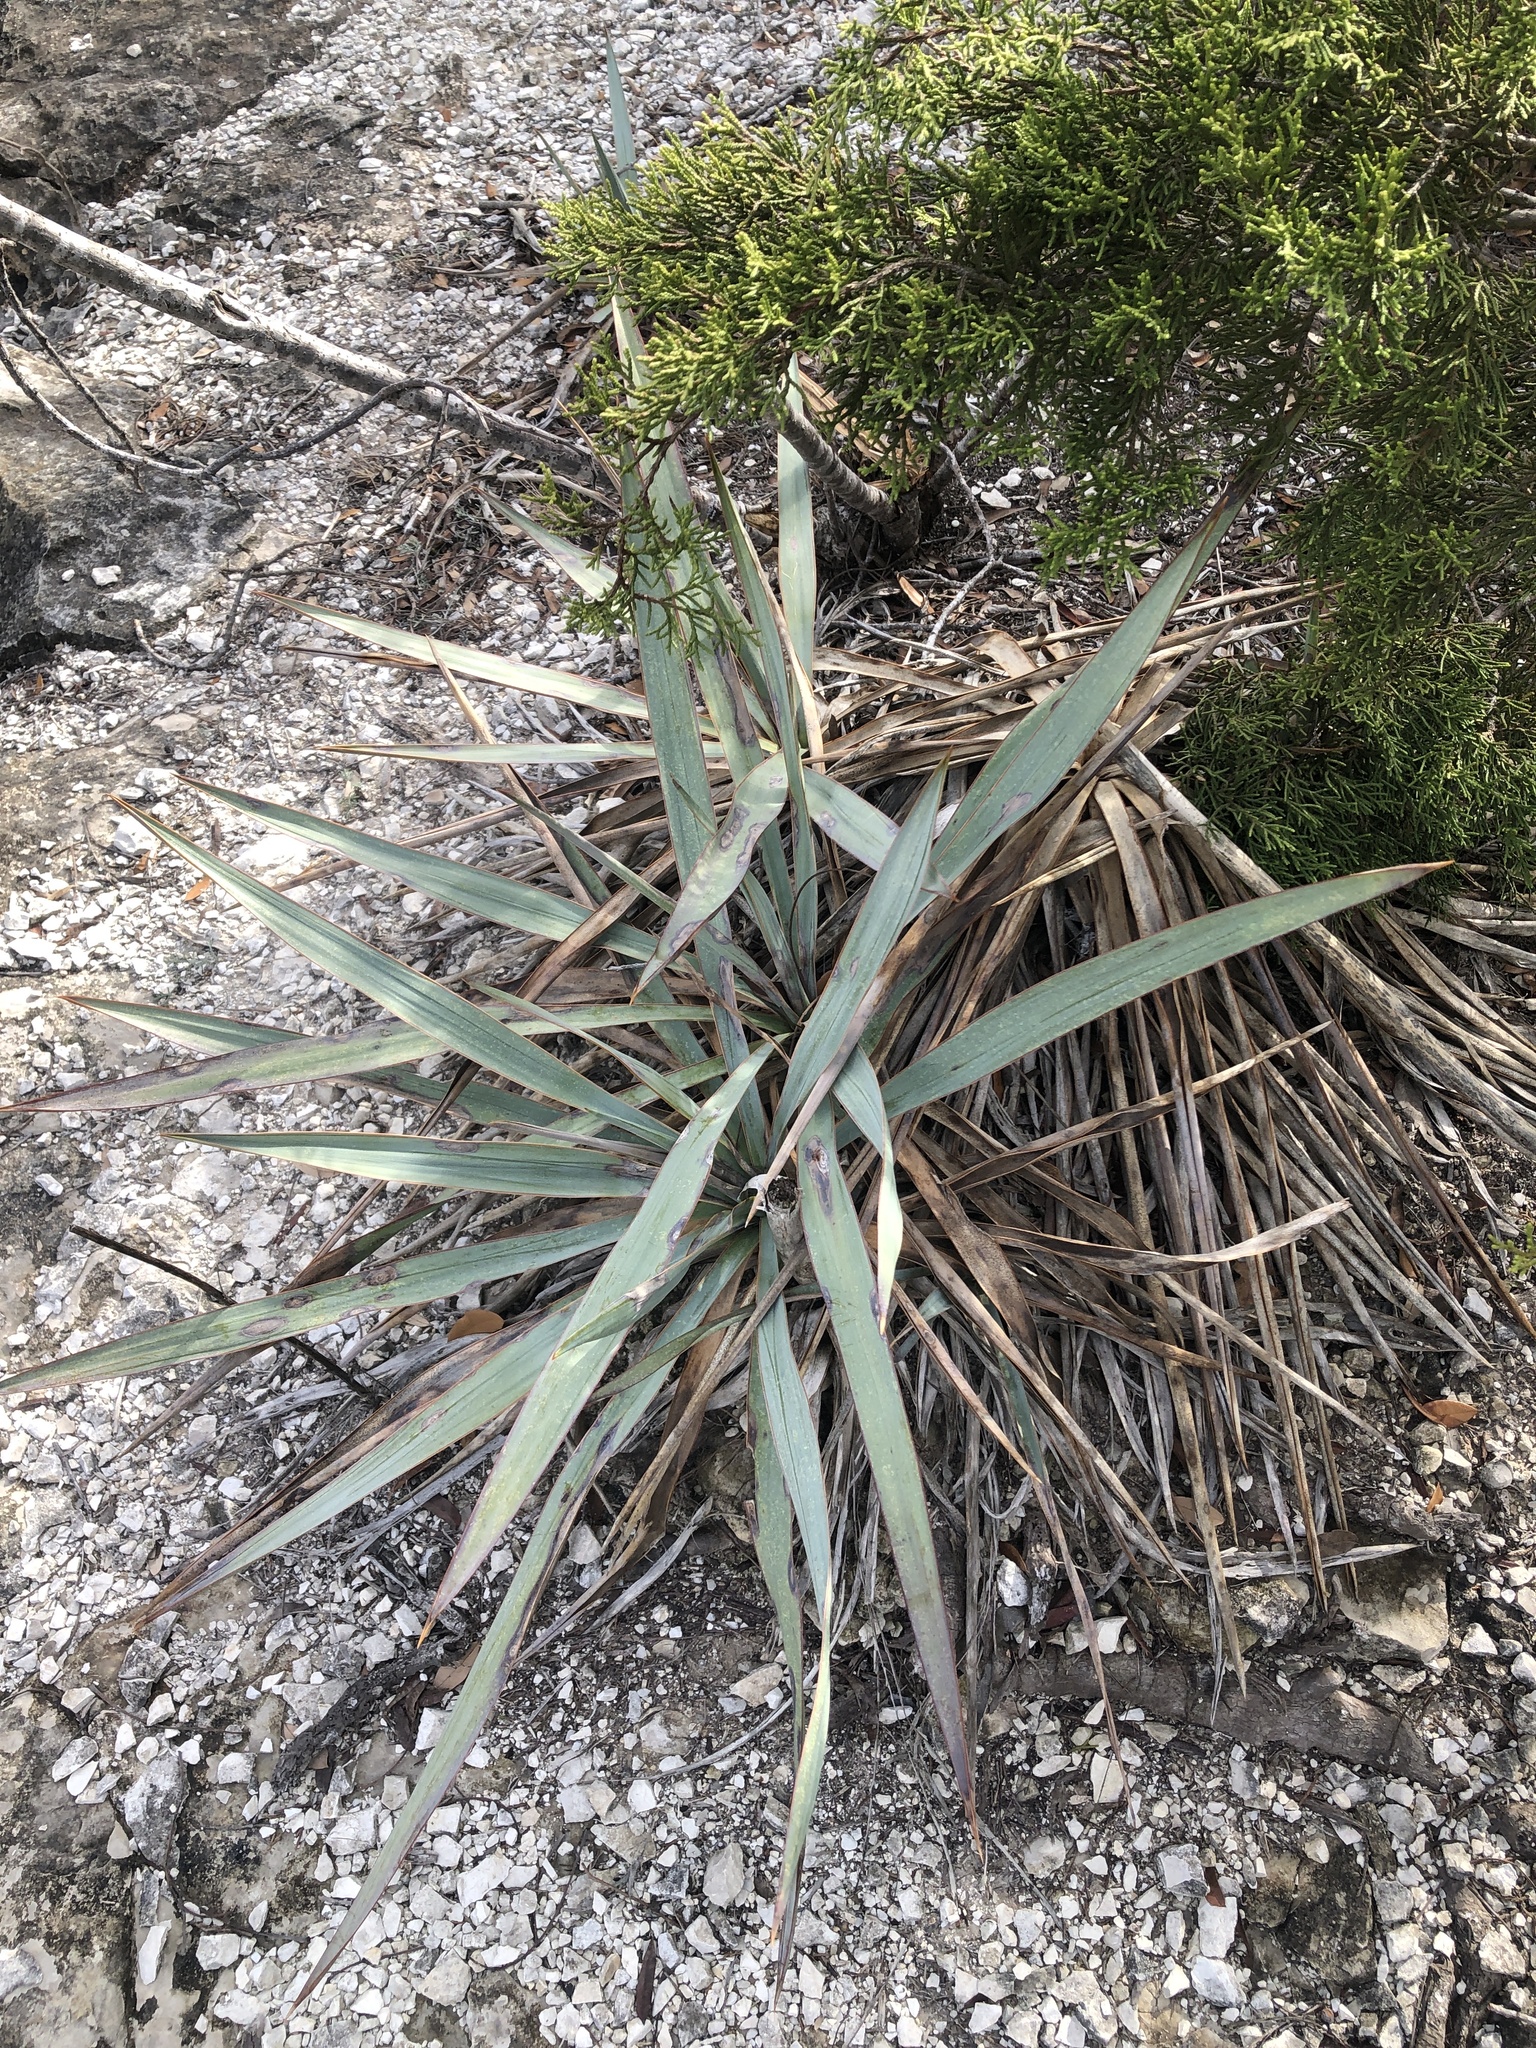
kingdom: Plantae
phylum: Tracheophyta
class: Liliopsida
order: Asparagales
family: Asparagaceae
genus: Yucca
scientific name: Yucca pallida
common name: Pale leaf yucca
